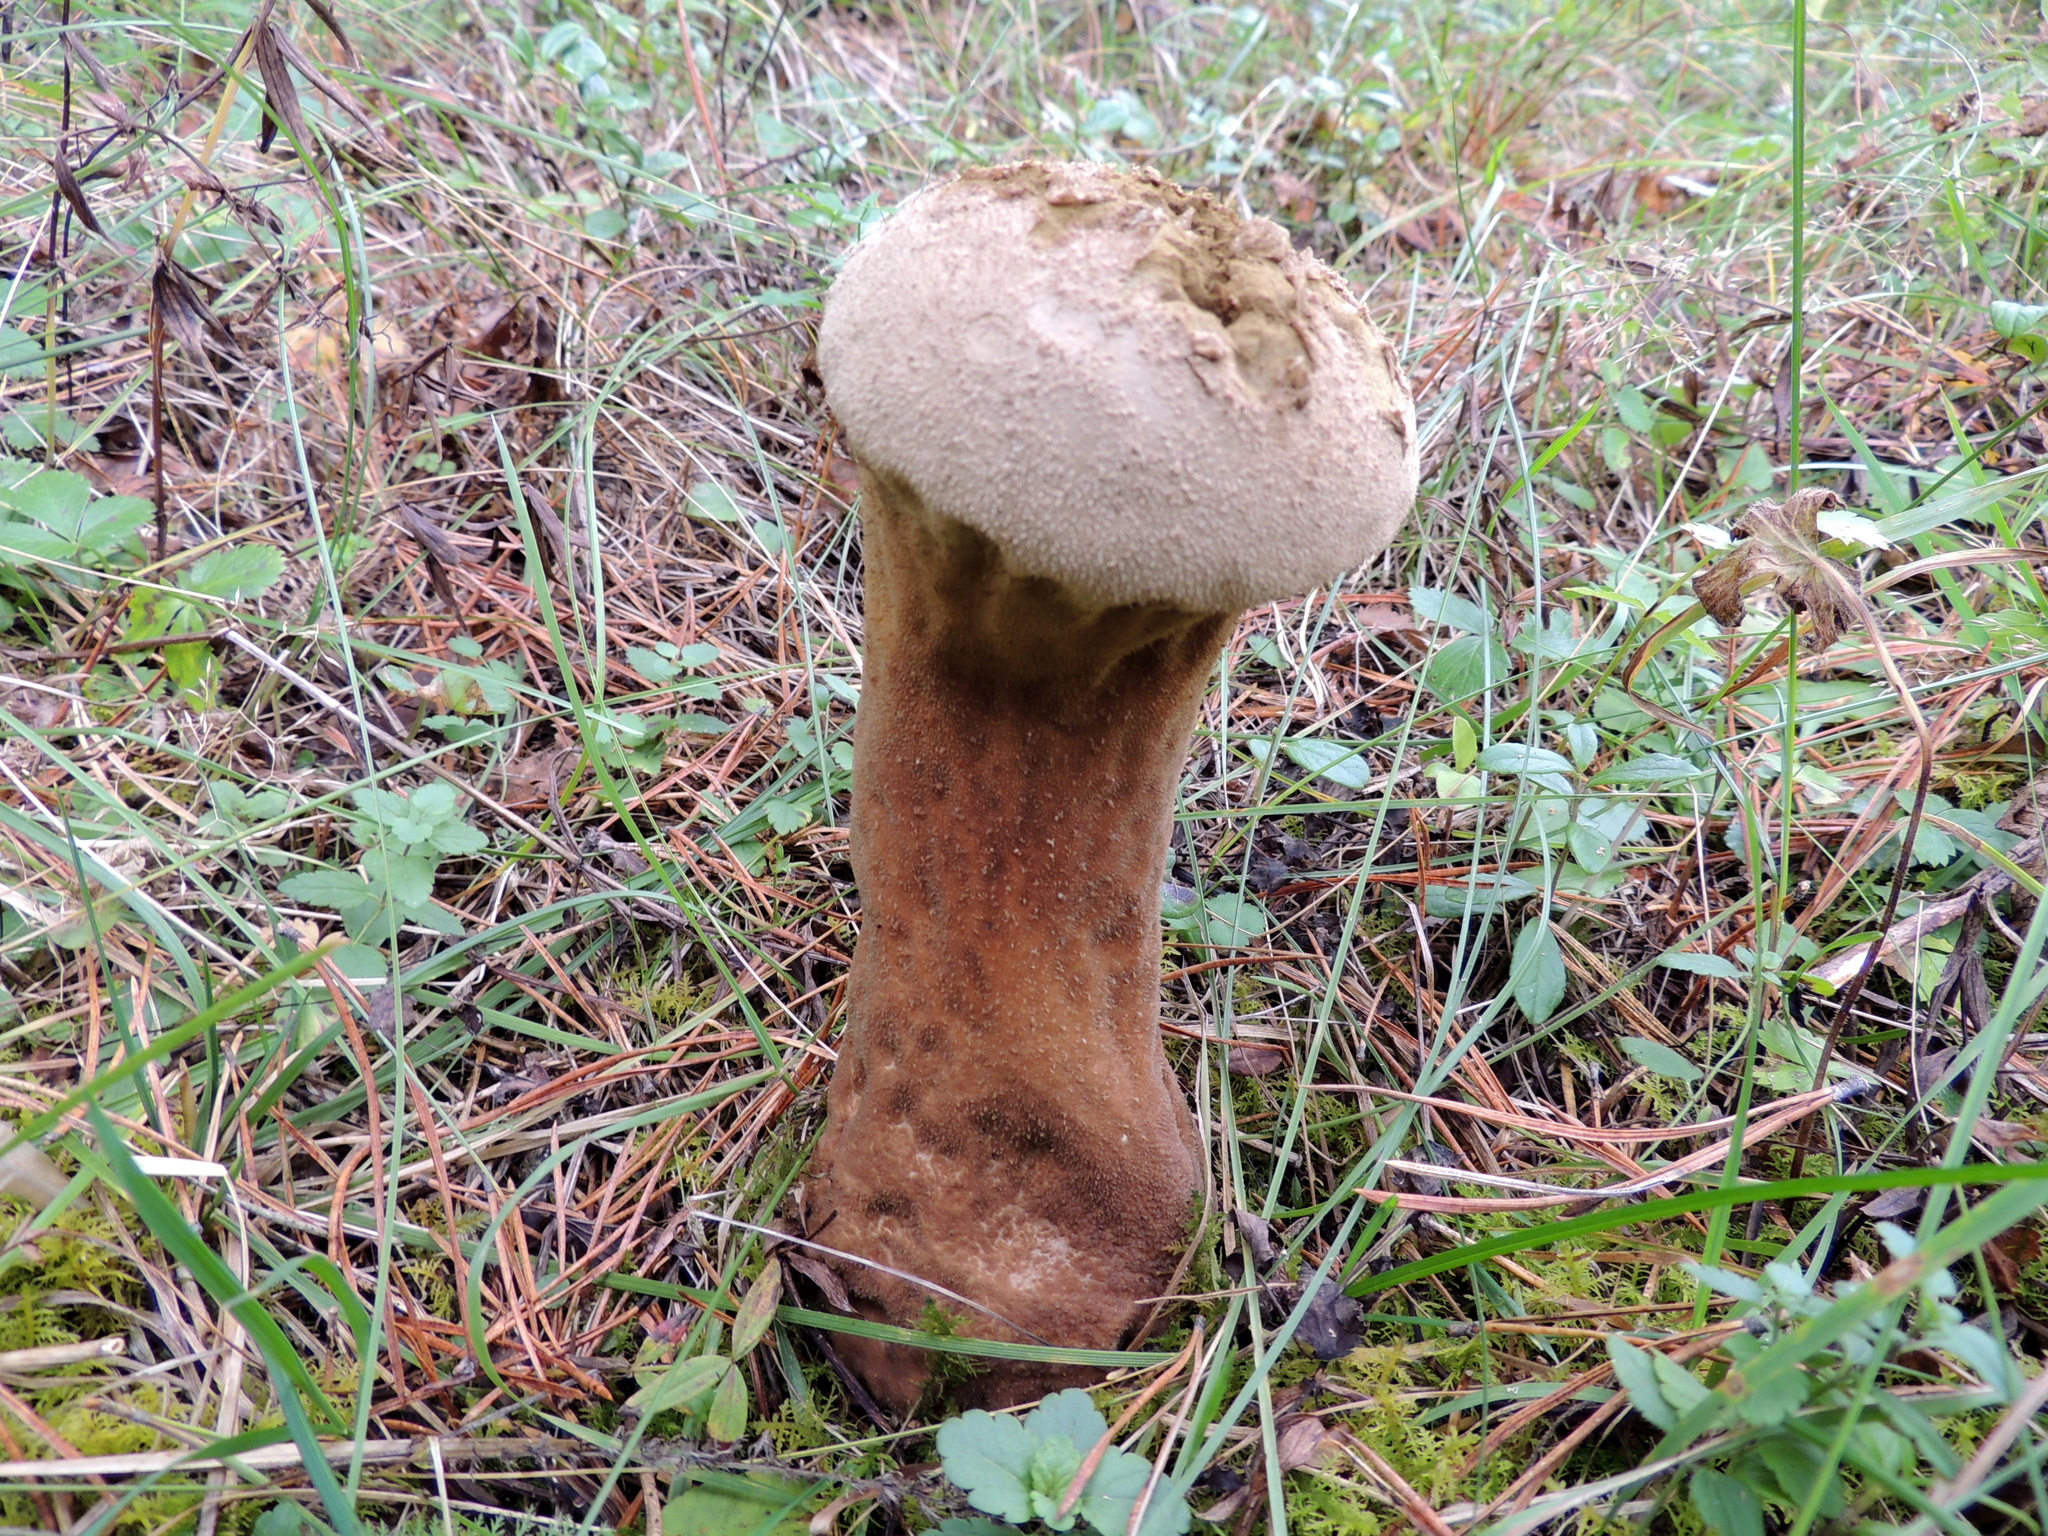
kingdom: Fungi
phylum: Basidiomycota
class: Agaricomycetes
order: Agaricales
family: Lycoperdaceae
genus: Lycoperdon
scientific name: Lycoperdon excipuliforme
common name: Pestle puffball
